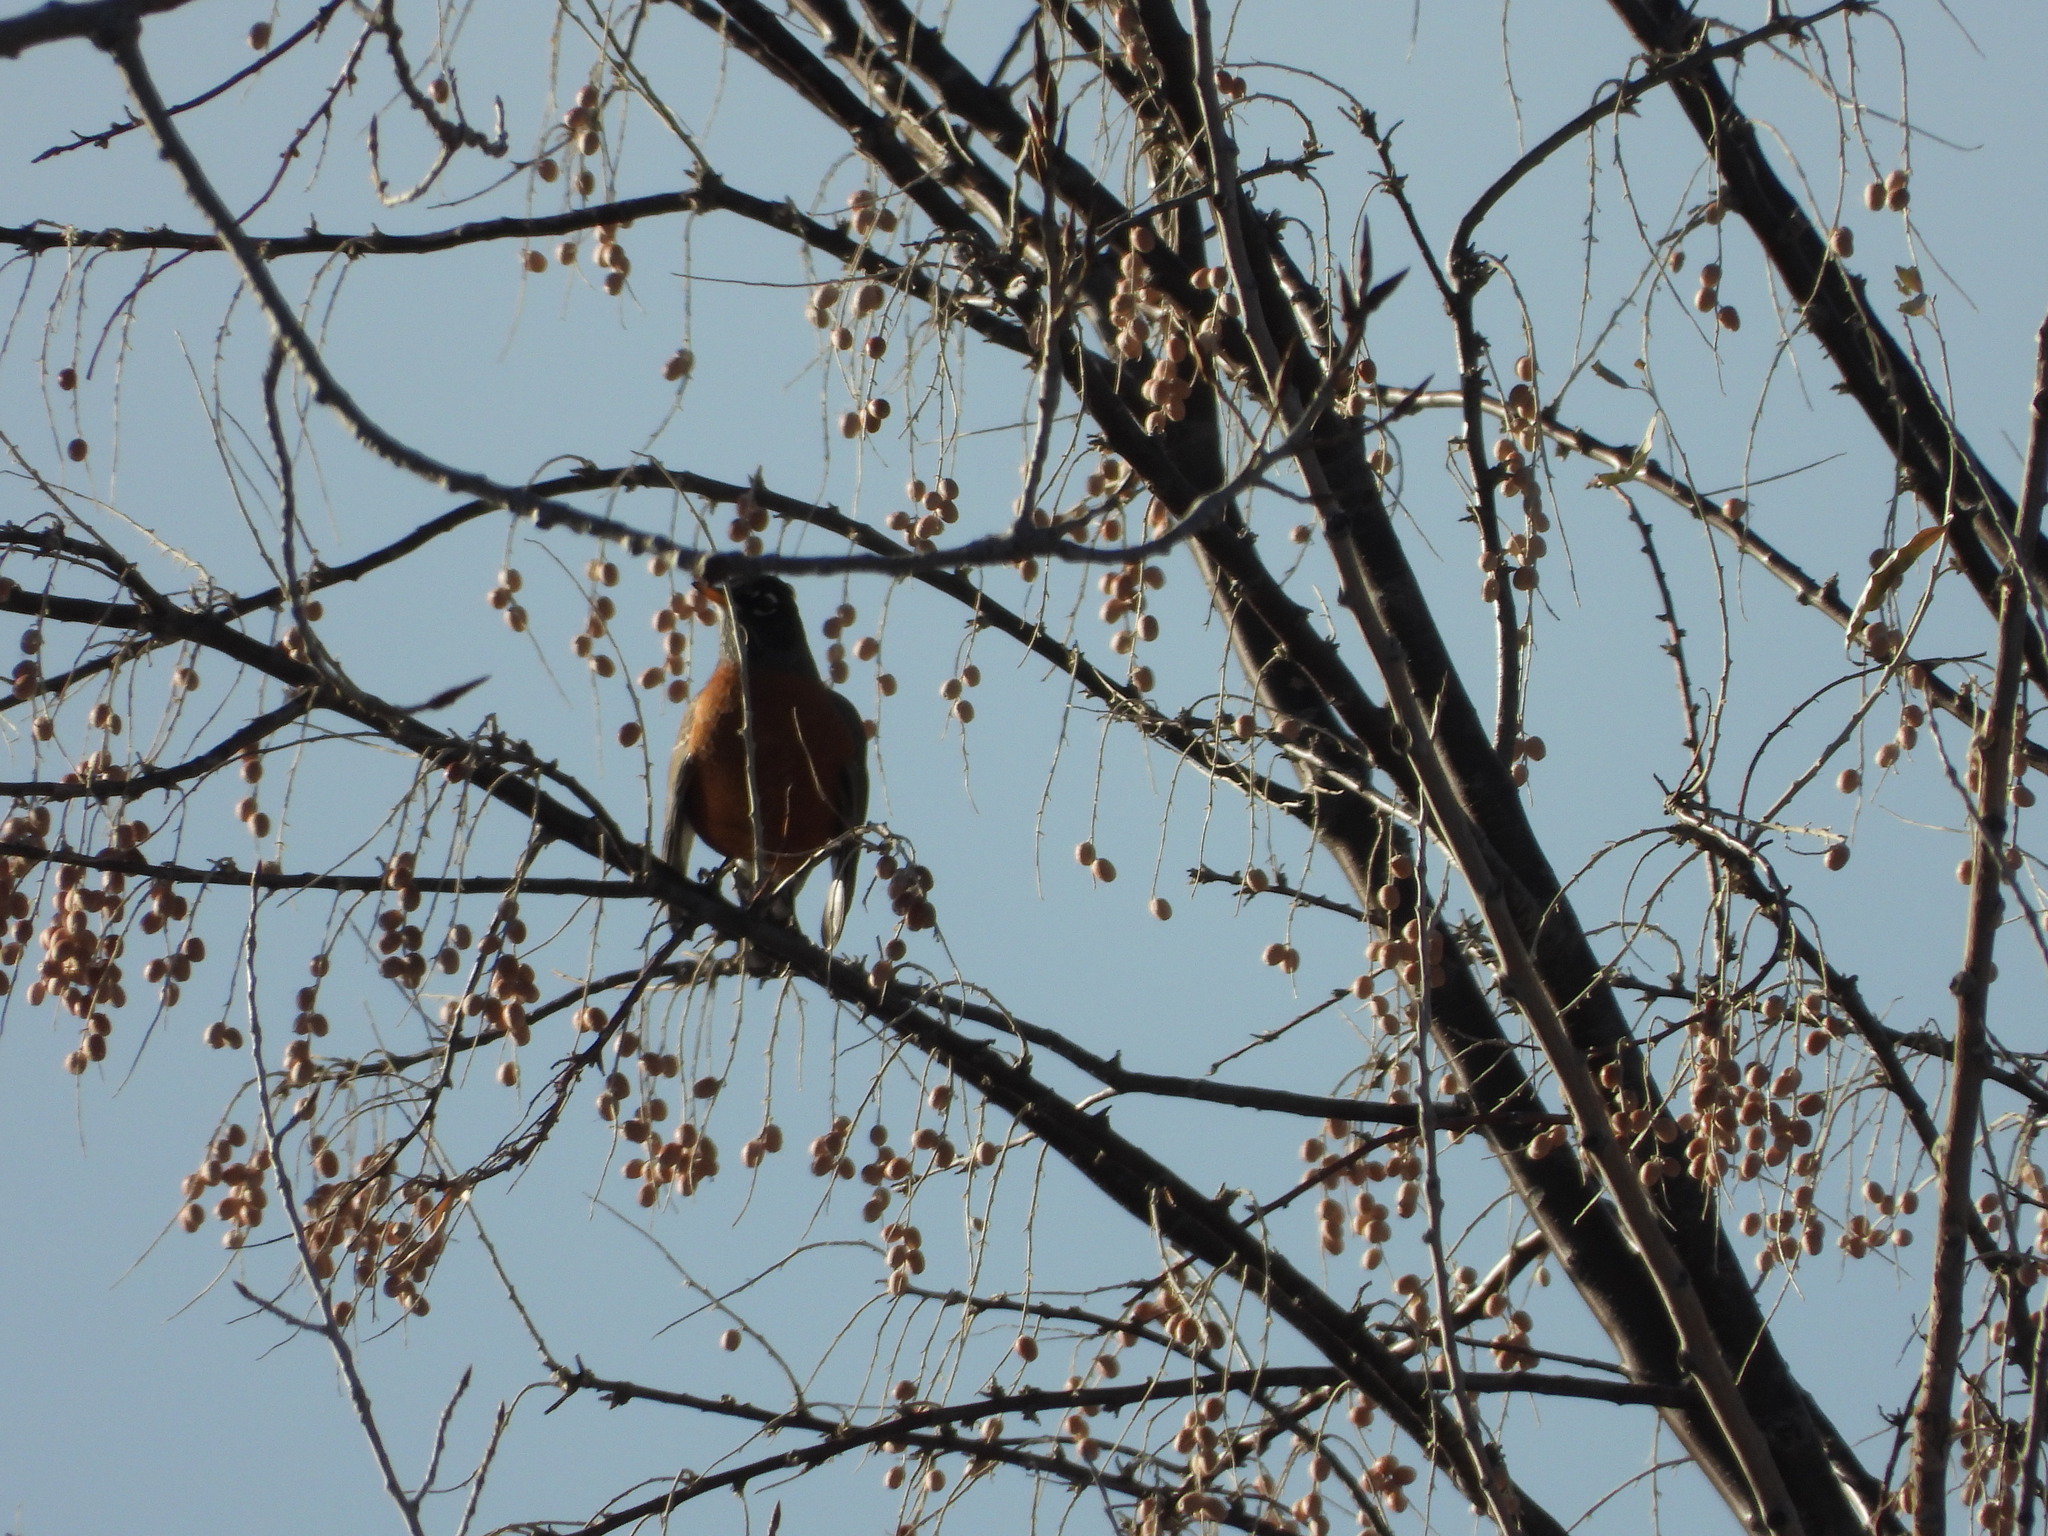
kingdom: Animalia
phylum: Chordata
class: Aves
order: Passeriformes
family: Turdidae
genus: Turdus
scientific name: Turdus migratorius
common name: American robin
